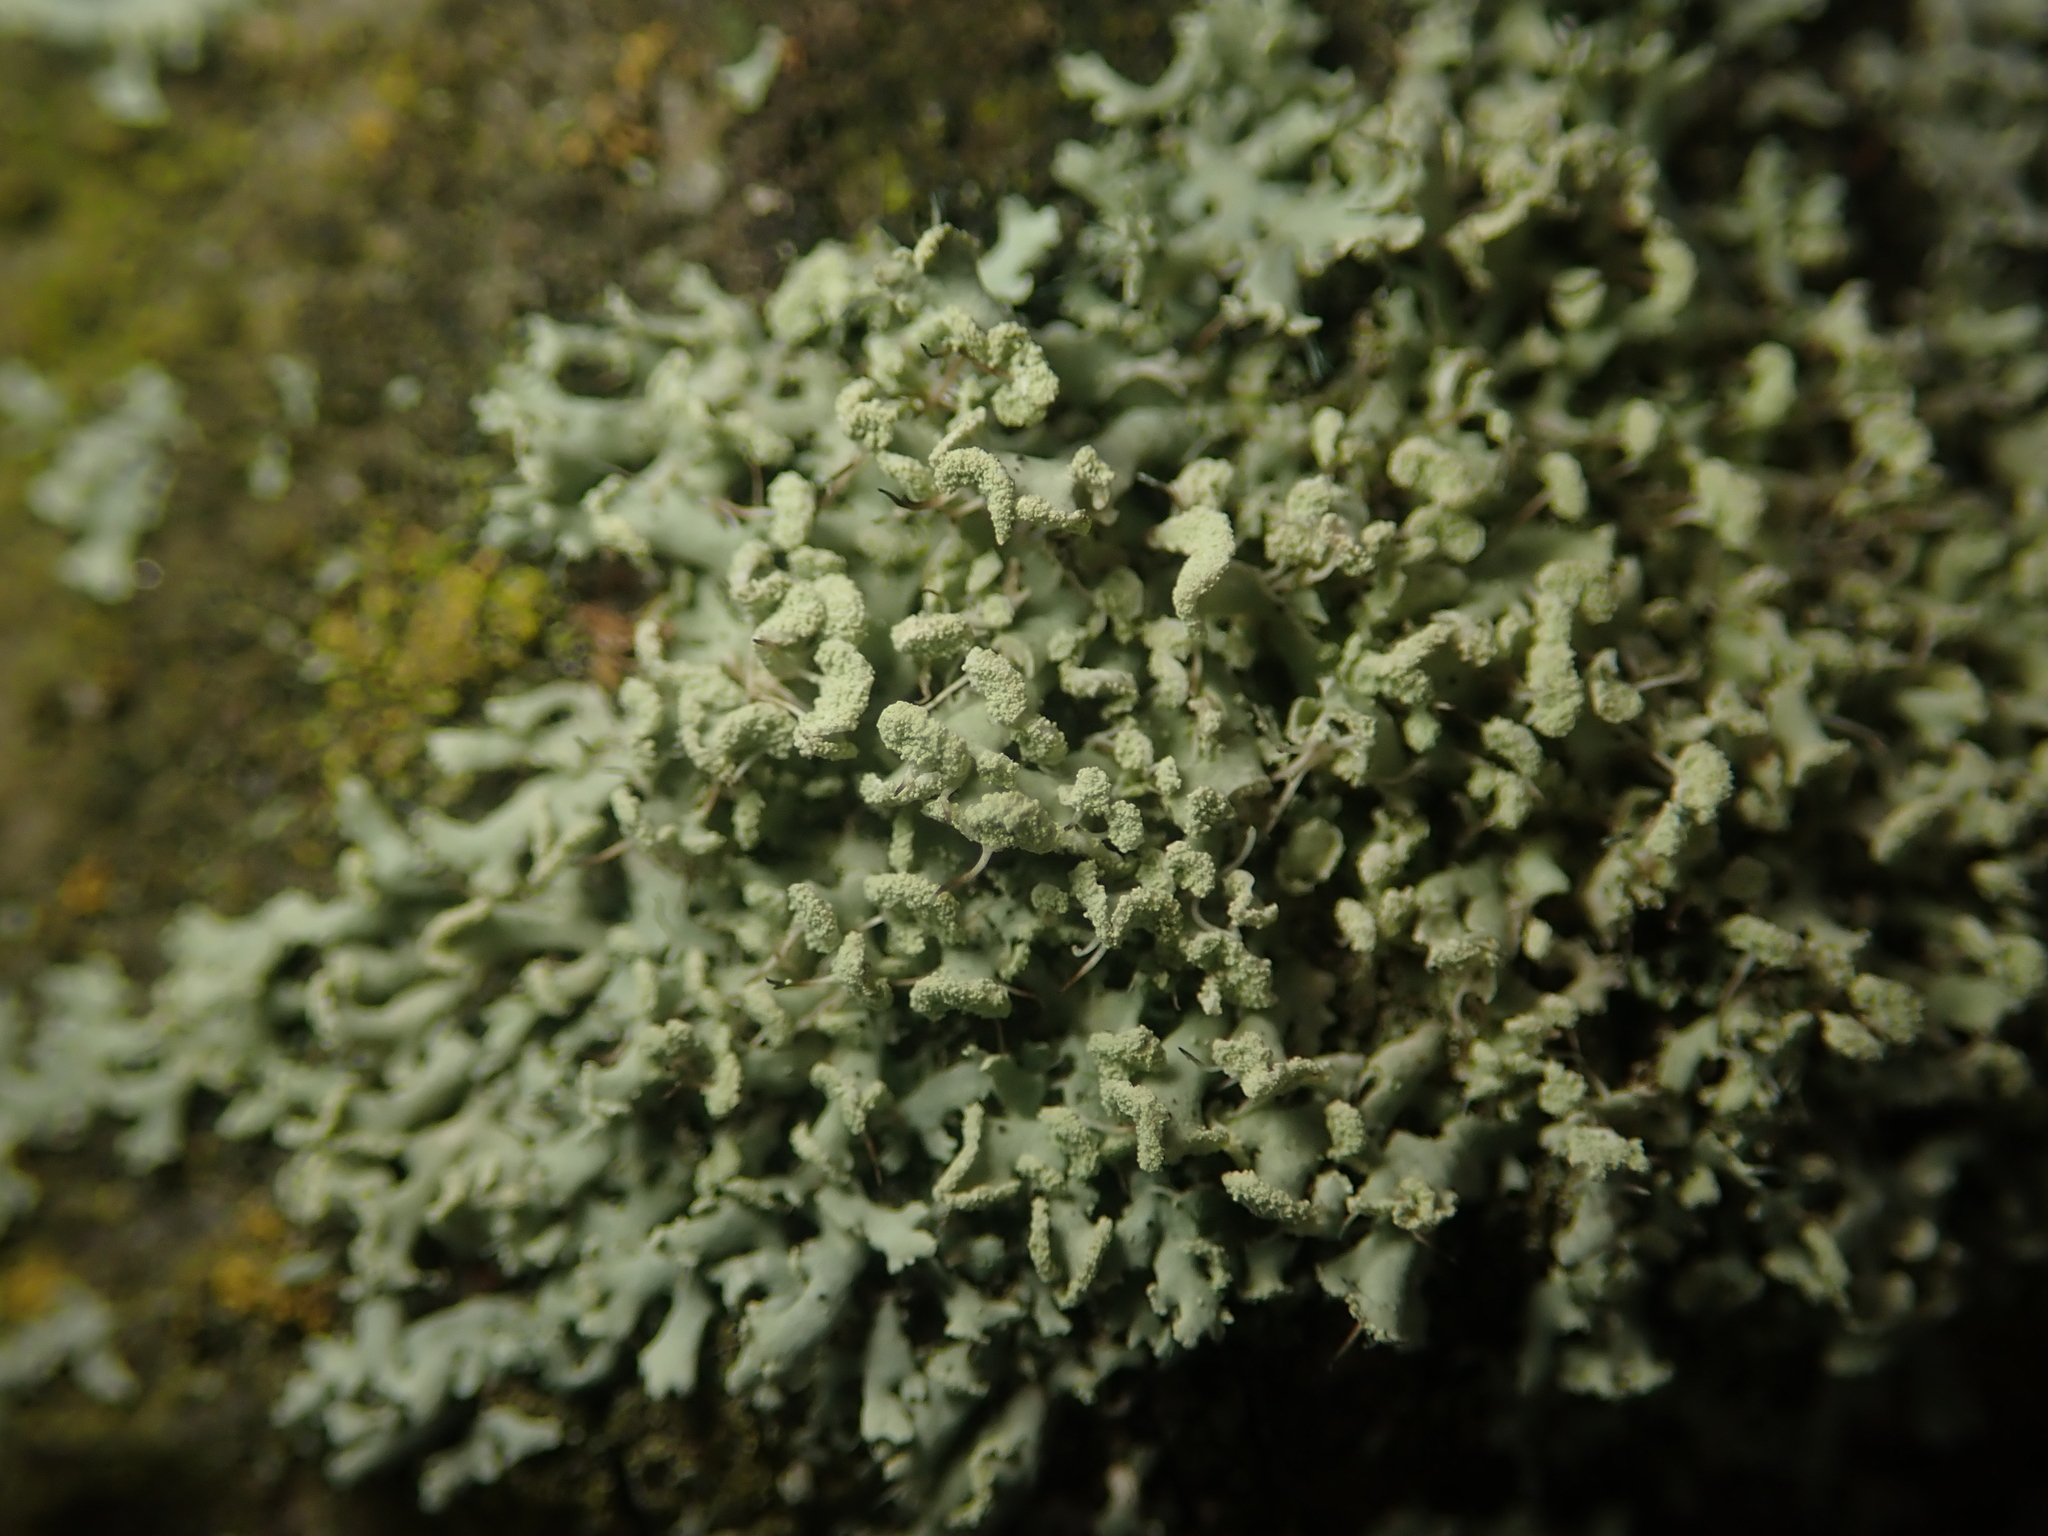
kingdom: Fungi
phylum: Ascomycota
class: Lecanoromycetes
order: Caliciales
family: Physciaceae
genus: Physcia
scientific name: Physcia tenella
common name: Fringed rosette lichen
